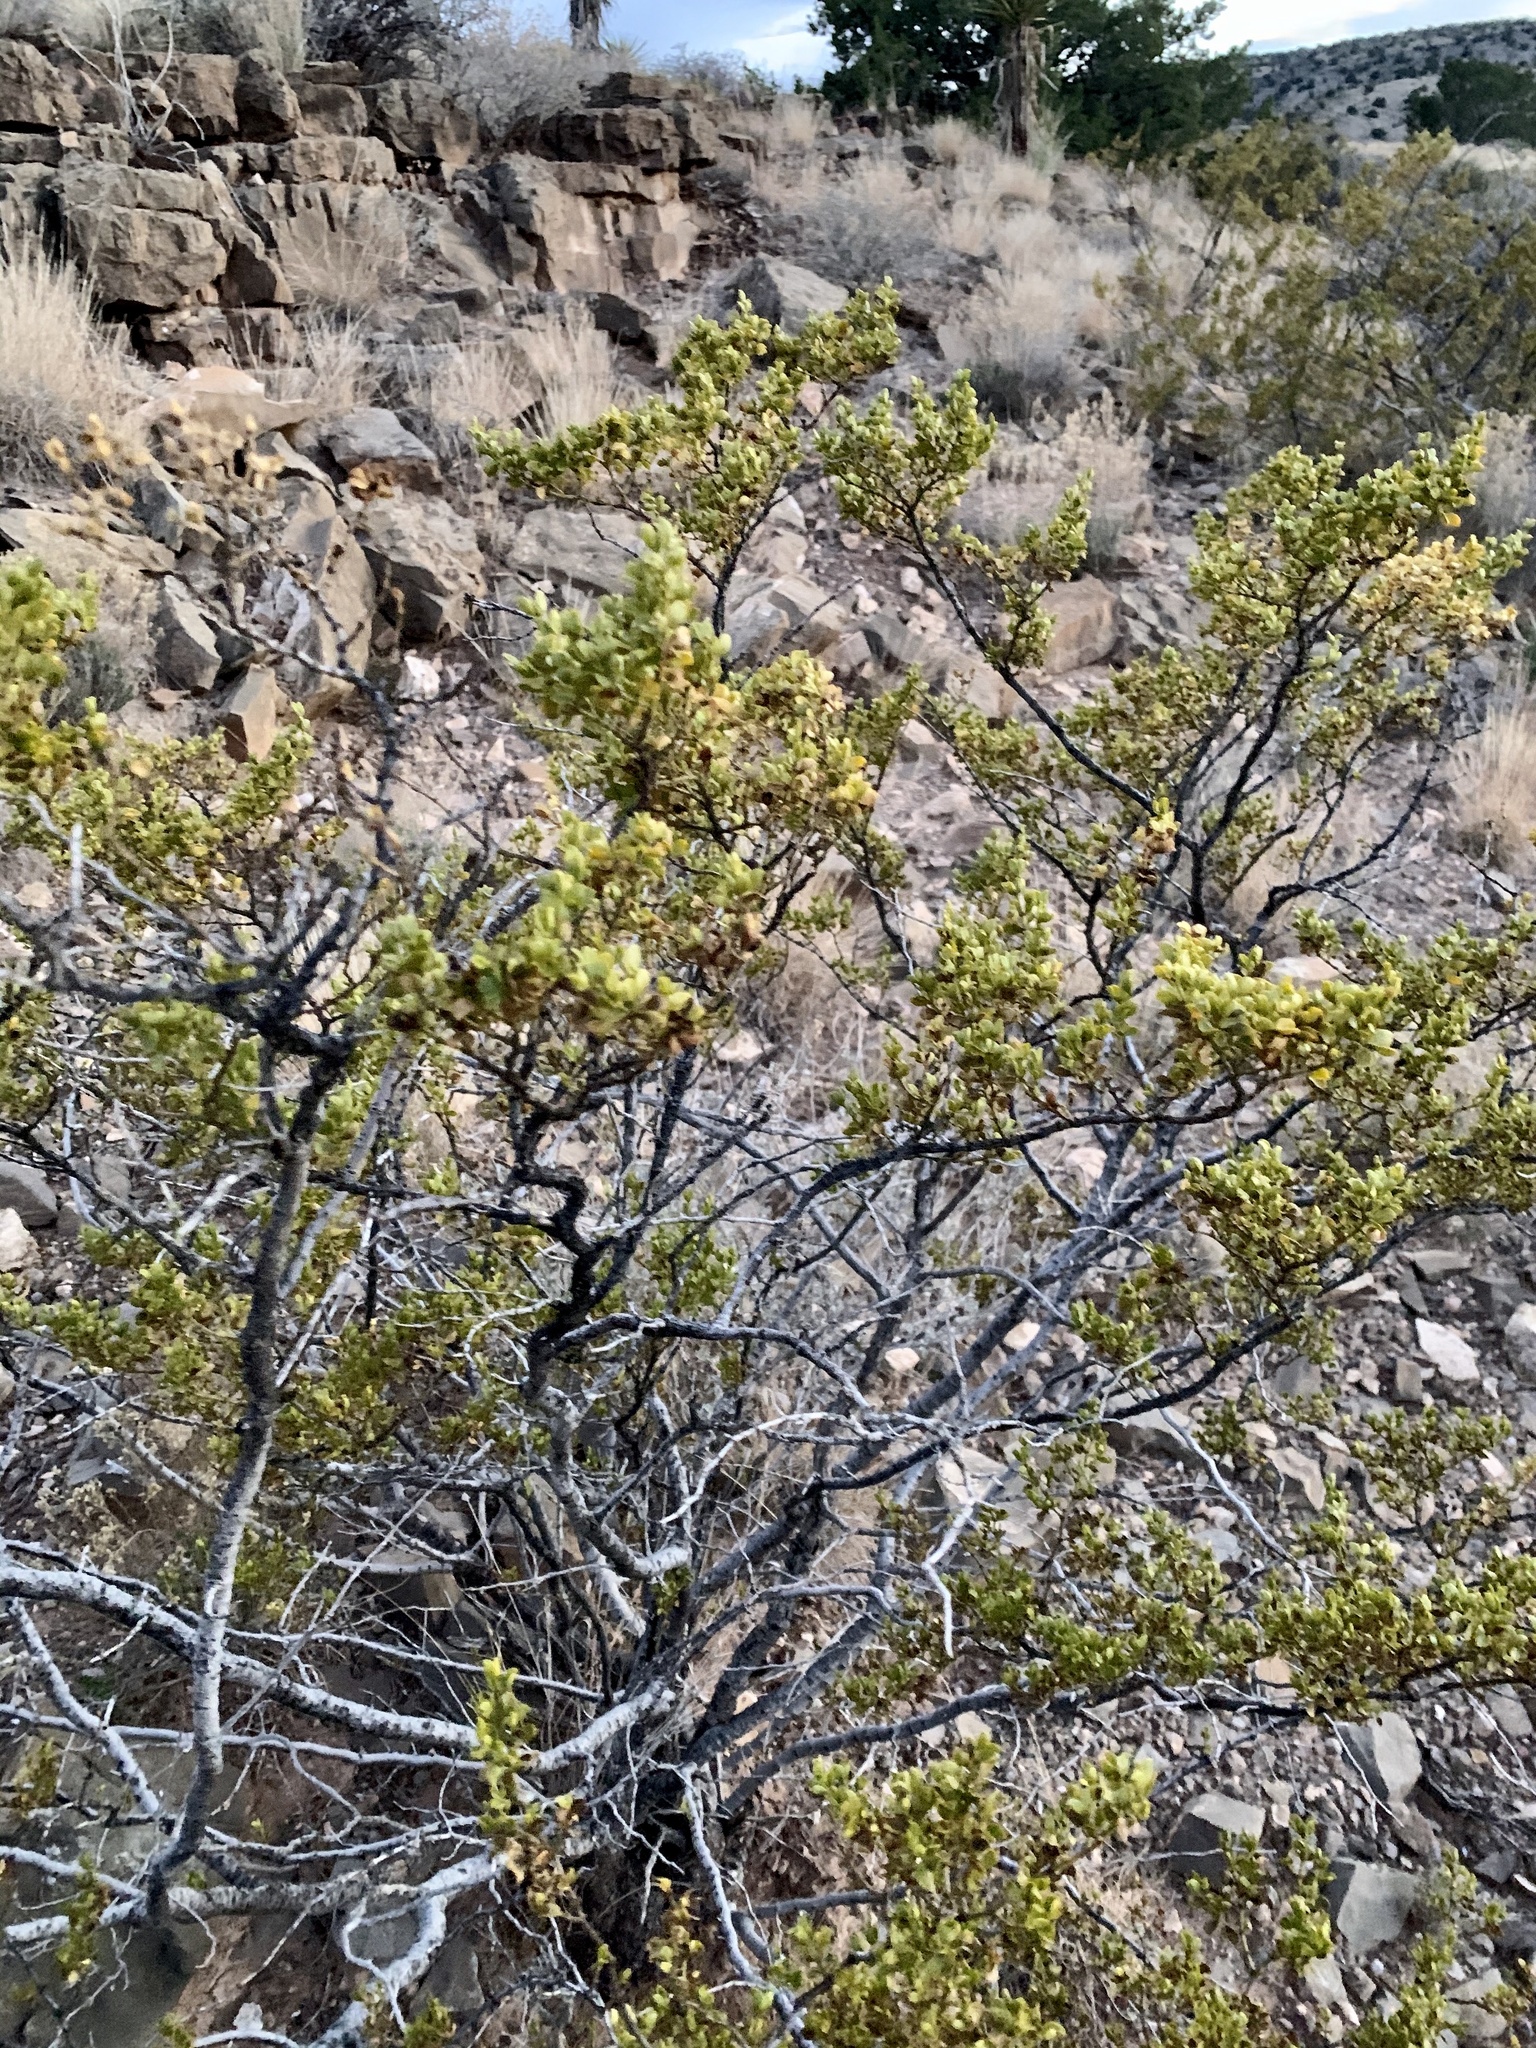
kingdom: Plantae
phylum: Tracheophyta
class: Magnoliopsida
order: Zygophyllales
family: Zygophyllaceae
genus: Larrea
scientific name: Larrea tridentata
